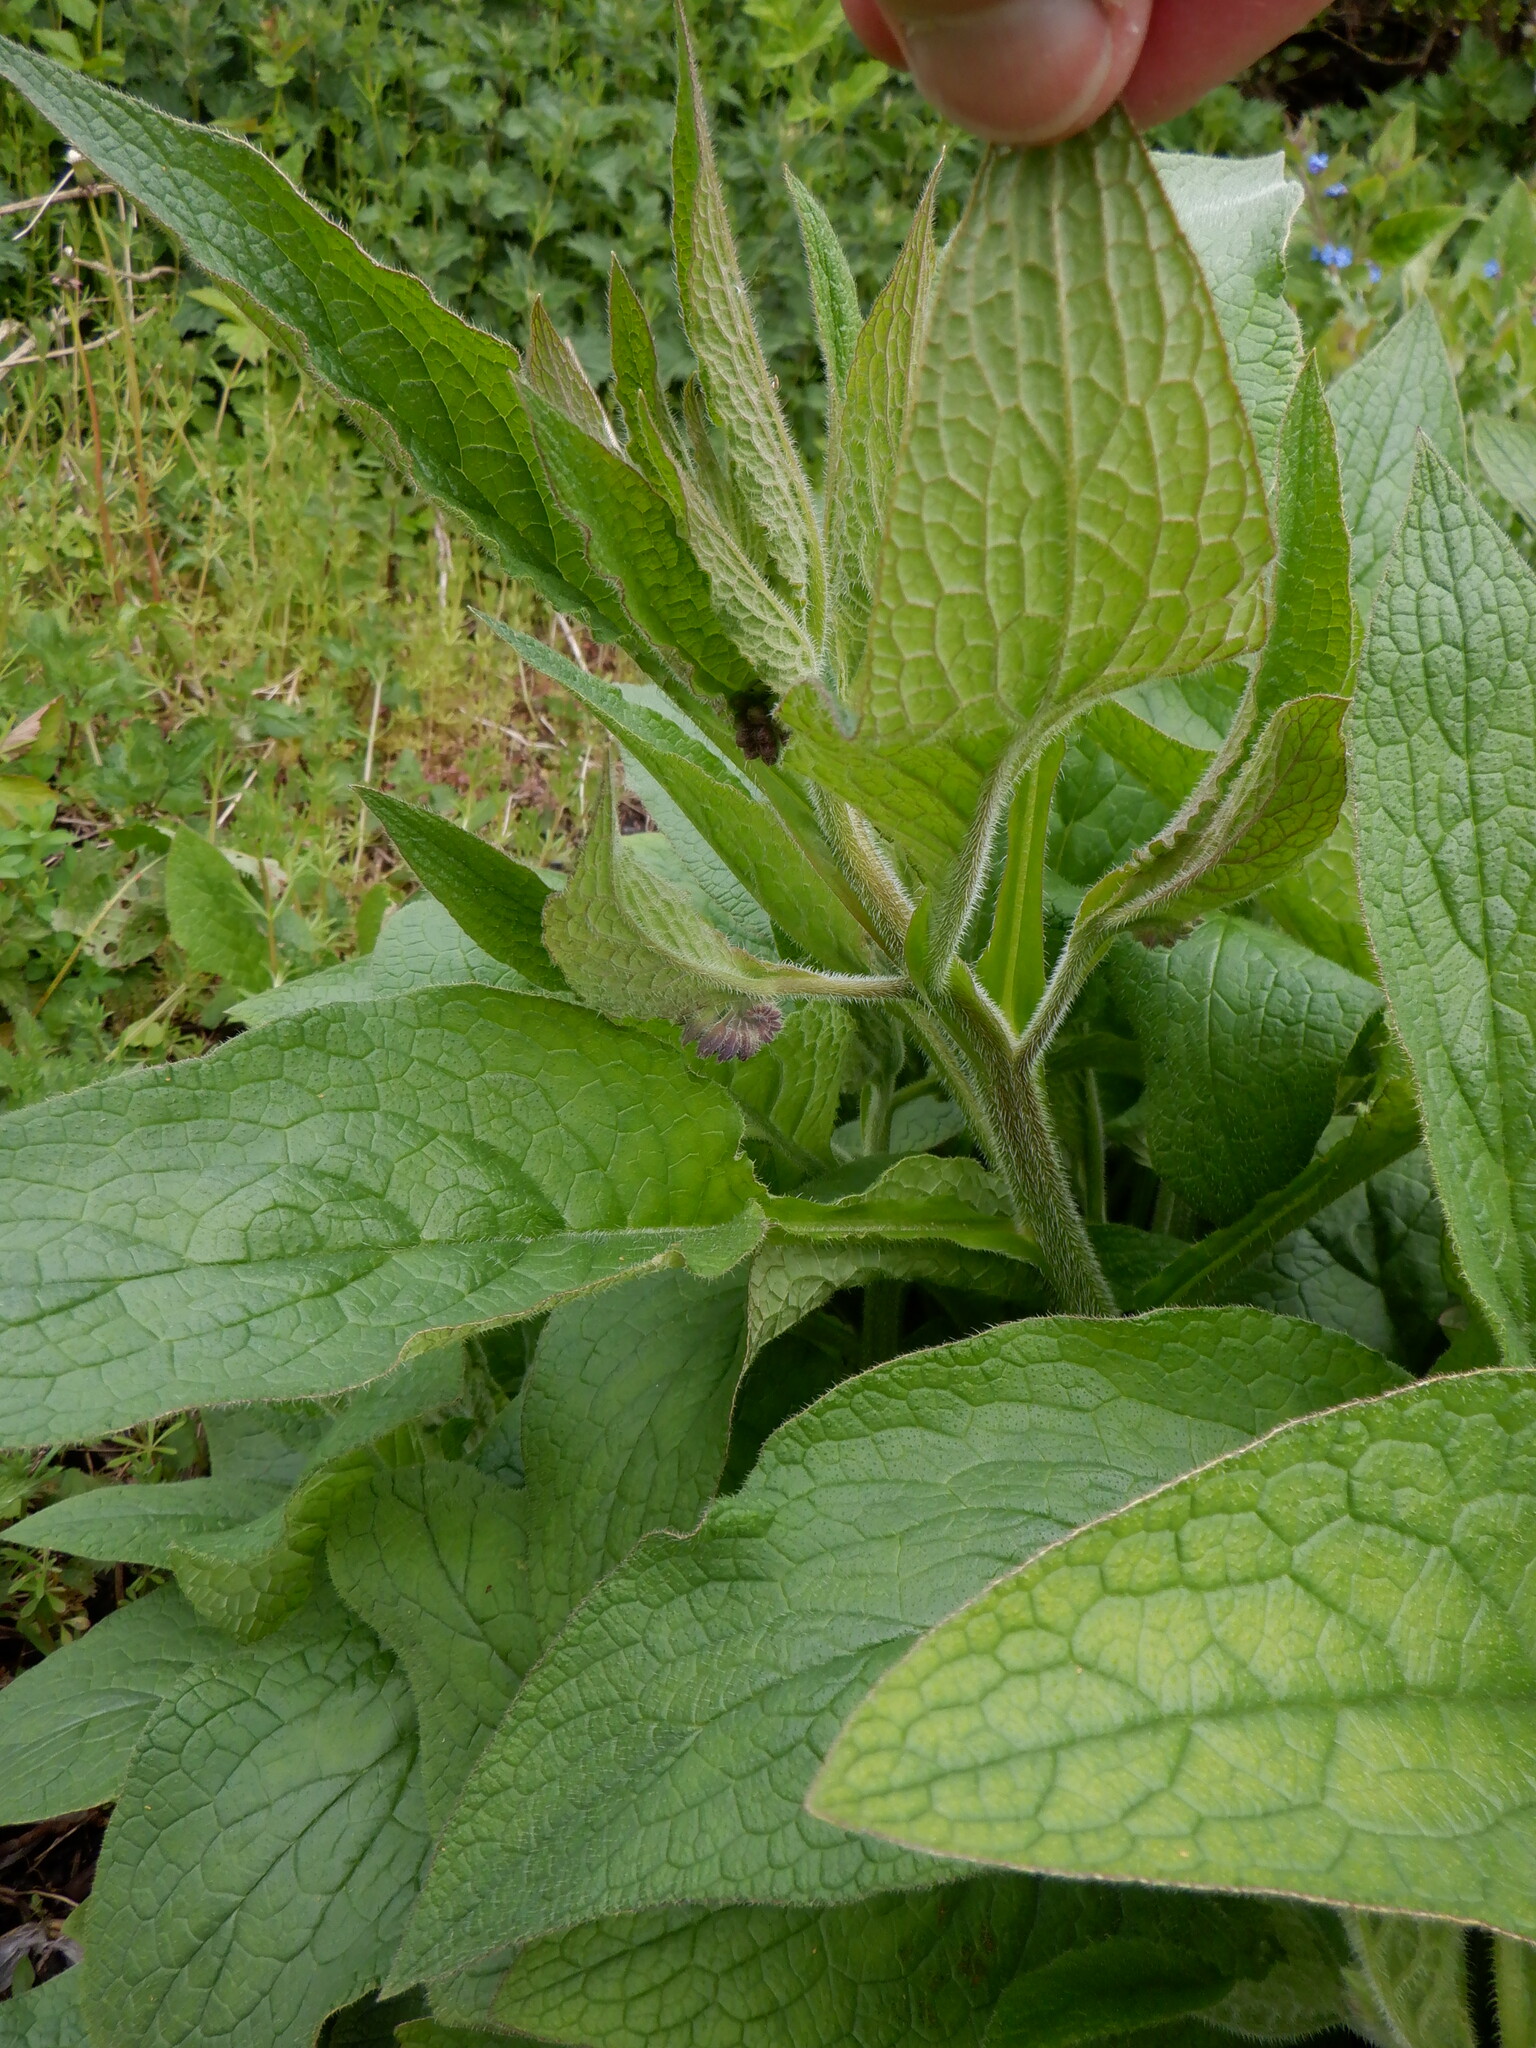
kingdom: Plantae
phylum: Tracheophyta
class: Magnoliopsida
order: Boraginales
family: Boraginaceae
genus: Symphytum
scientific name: Symphytum grandiflorum
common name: Creeping comfrey
